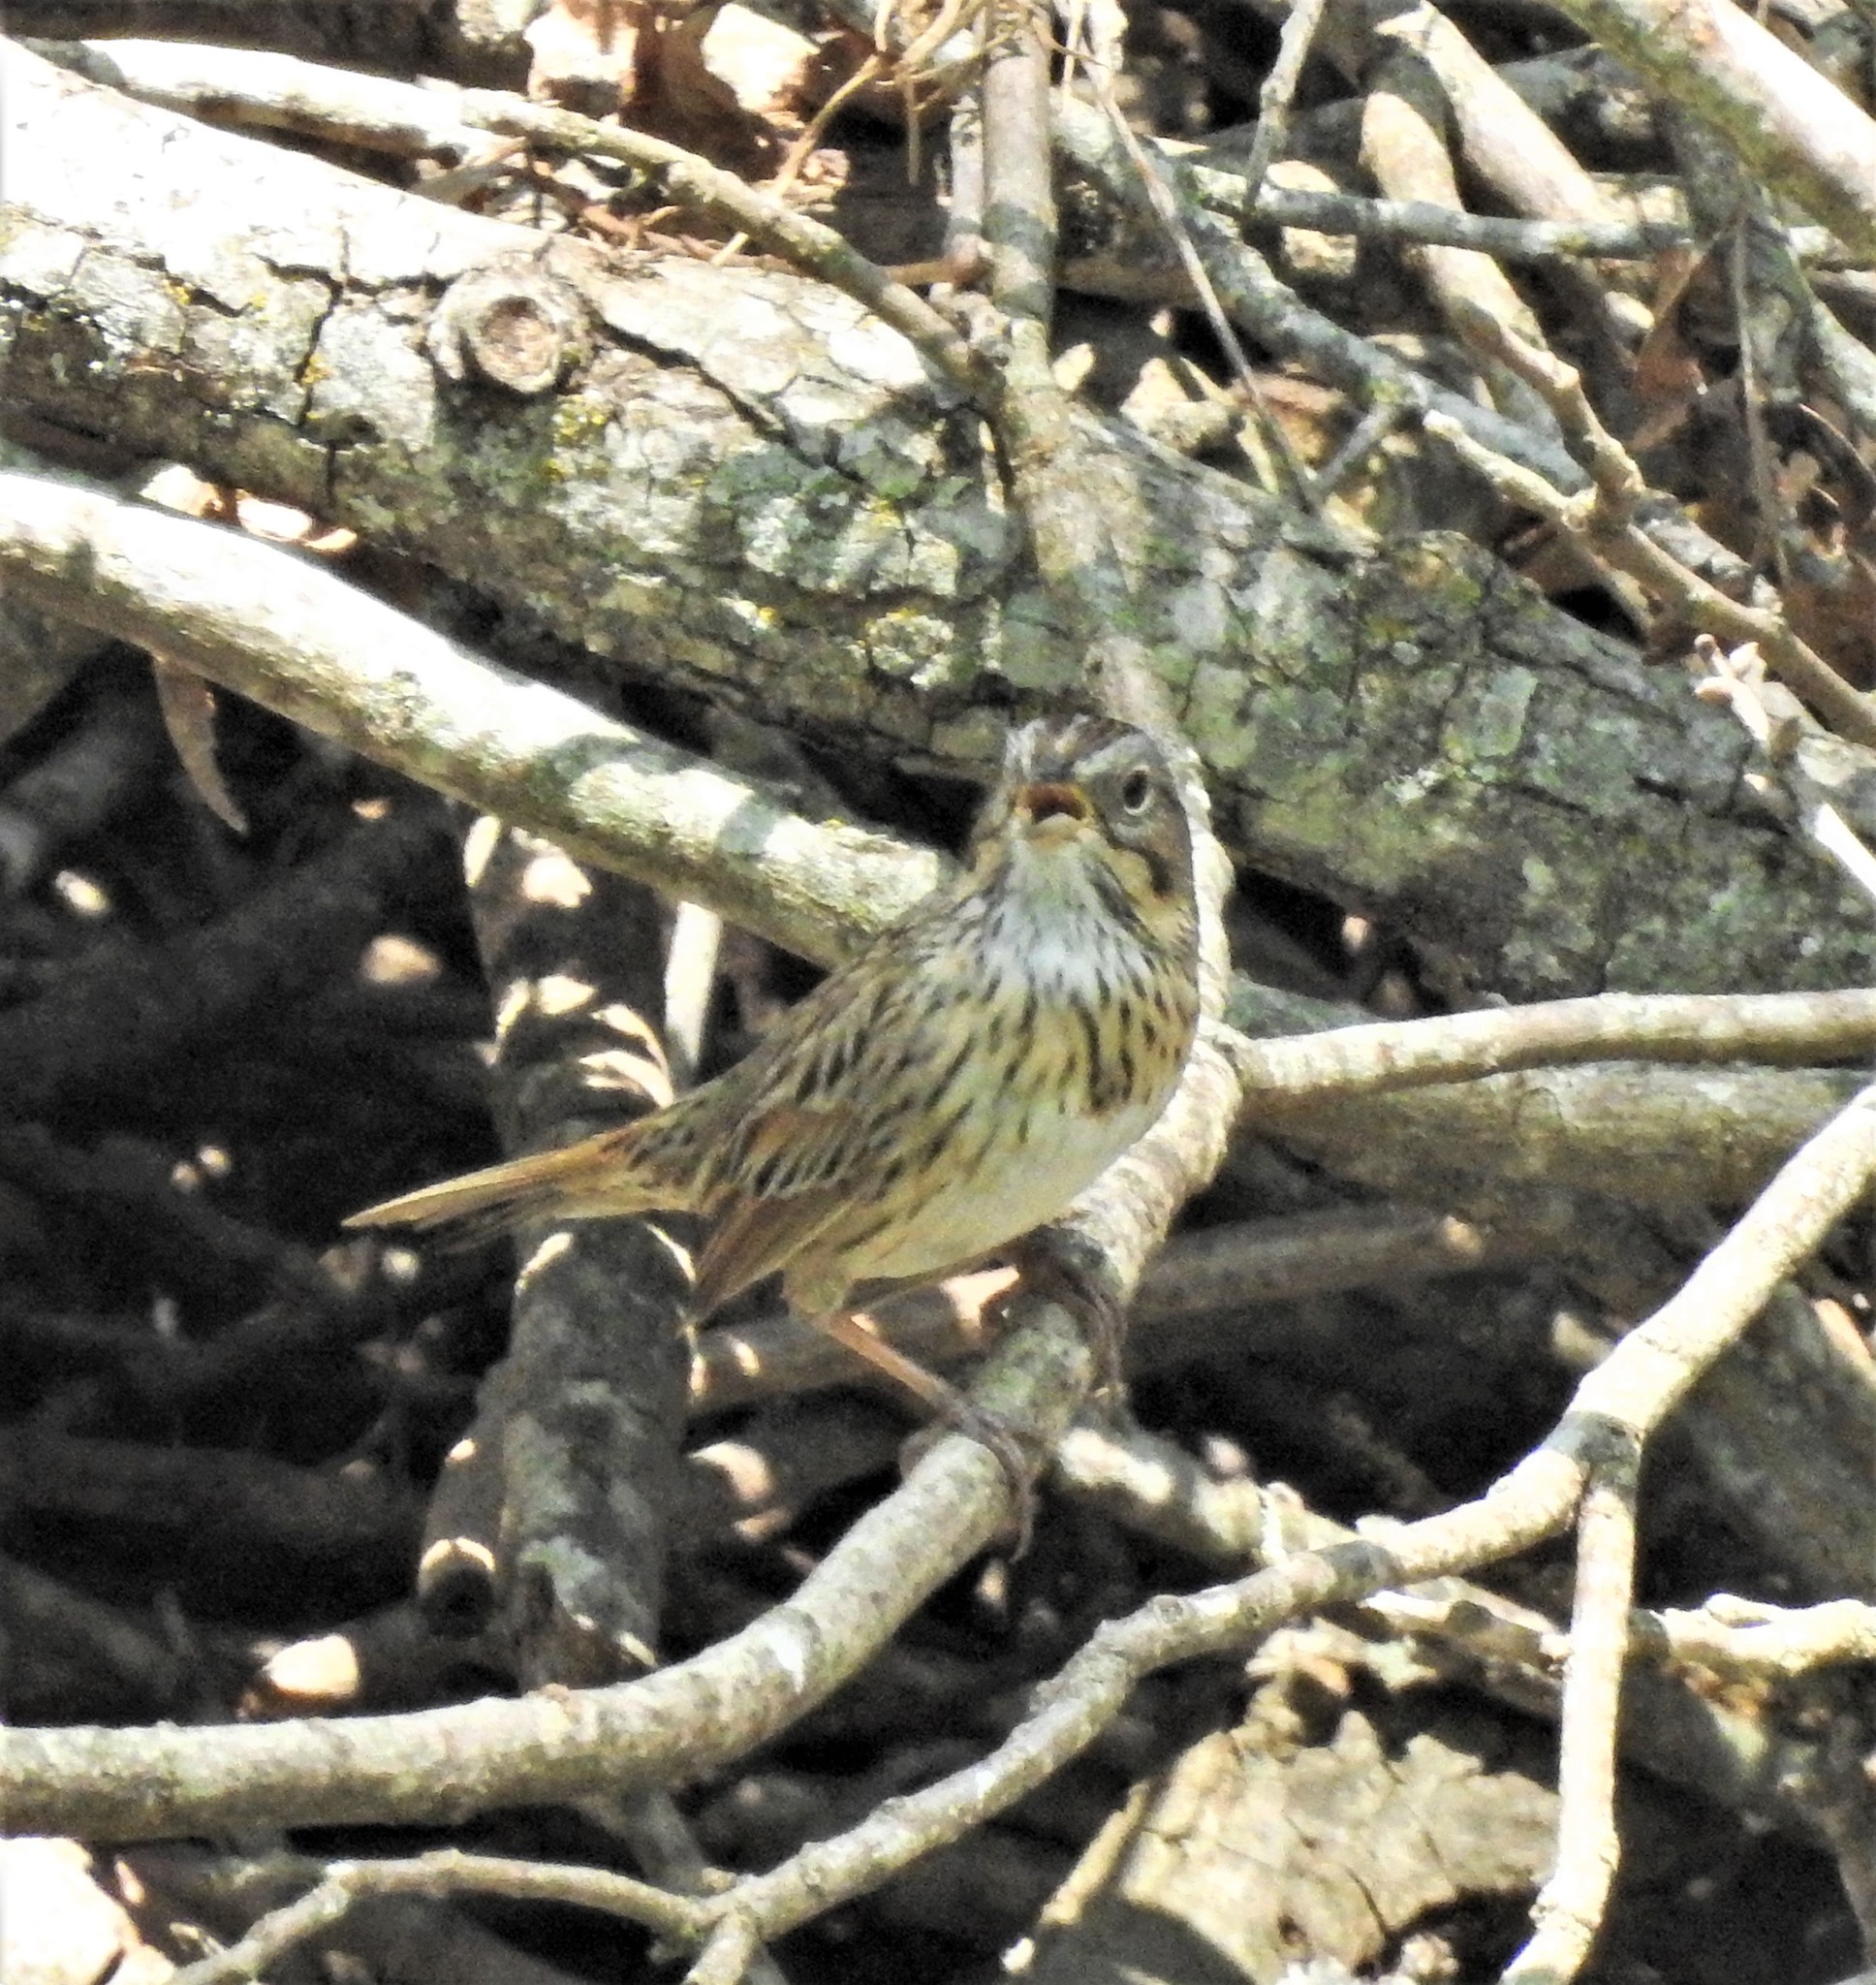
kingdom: Animalia
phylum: Chordata
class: Aves
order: Passeriformes
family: Passerellidae
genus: Melospiza
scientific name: Melospiza lincolnii
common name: Lincoln's sparrow
